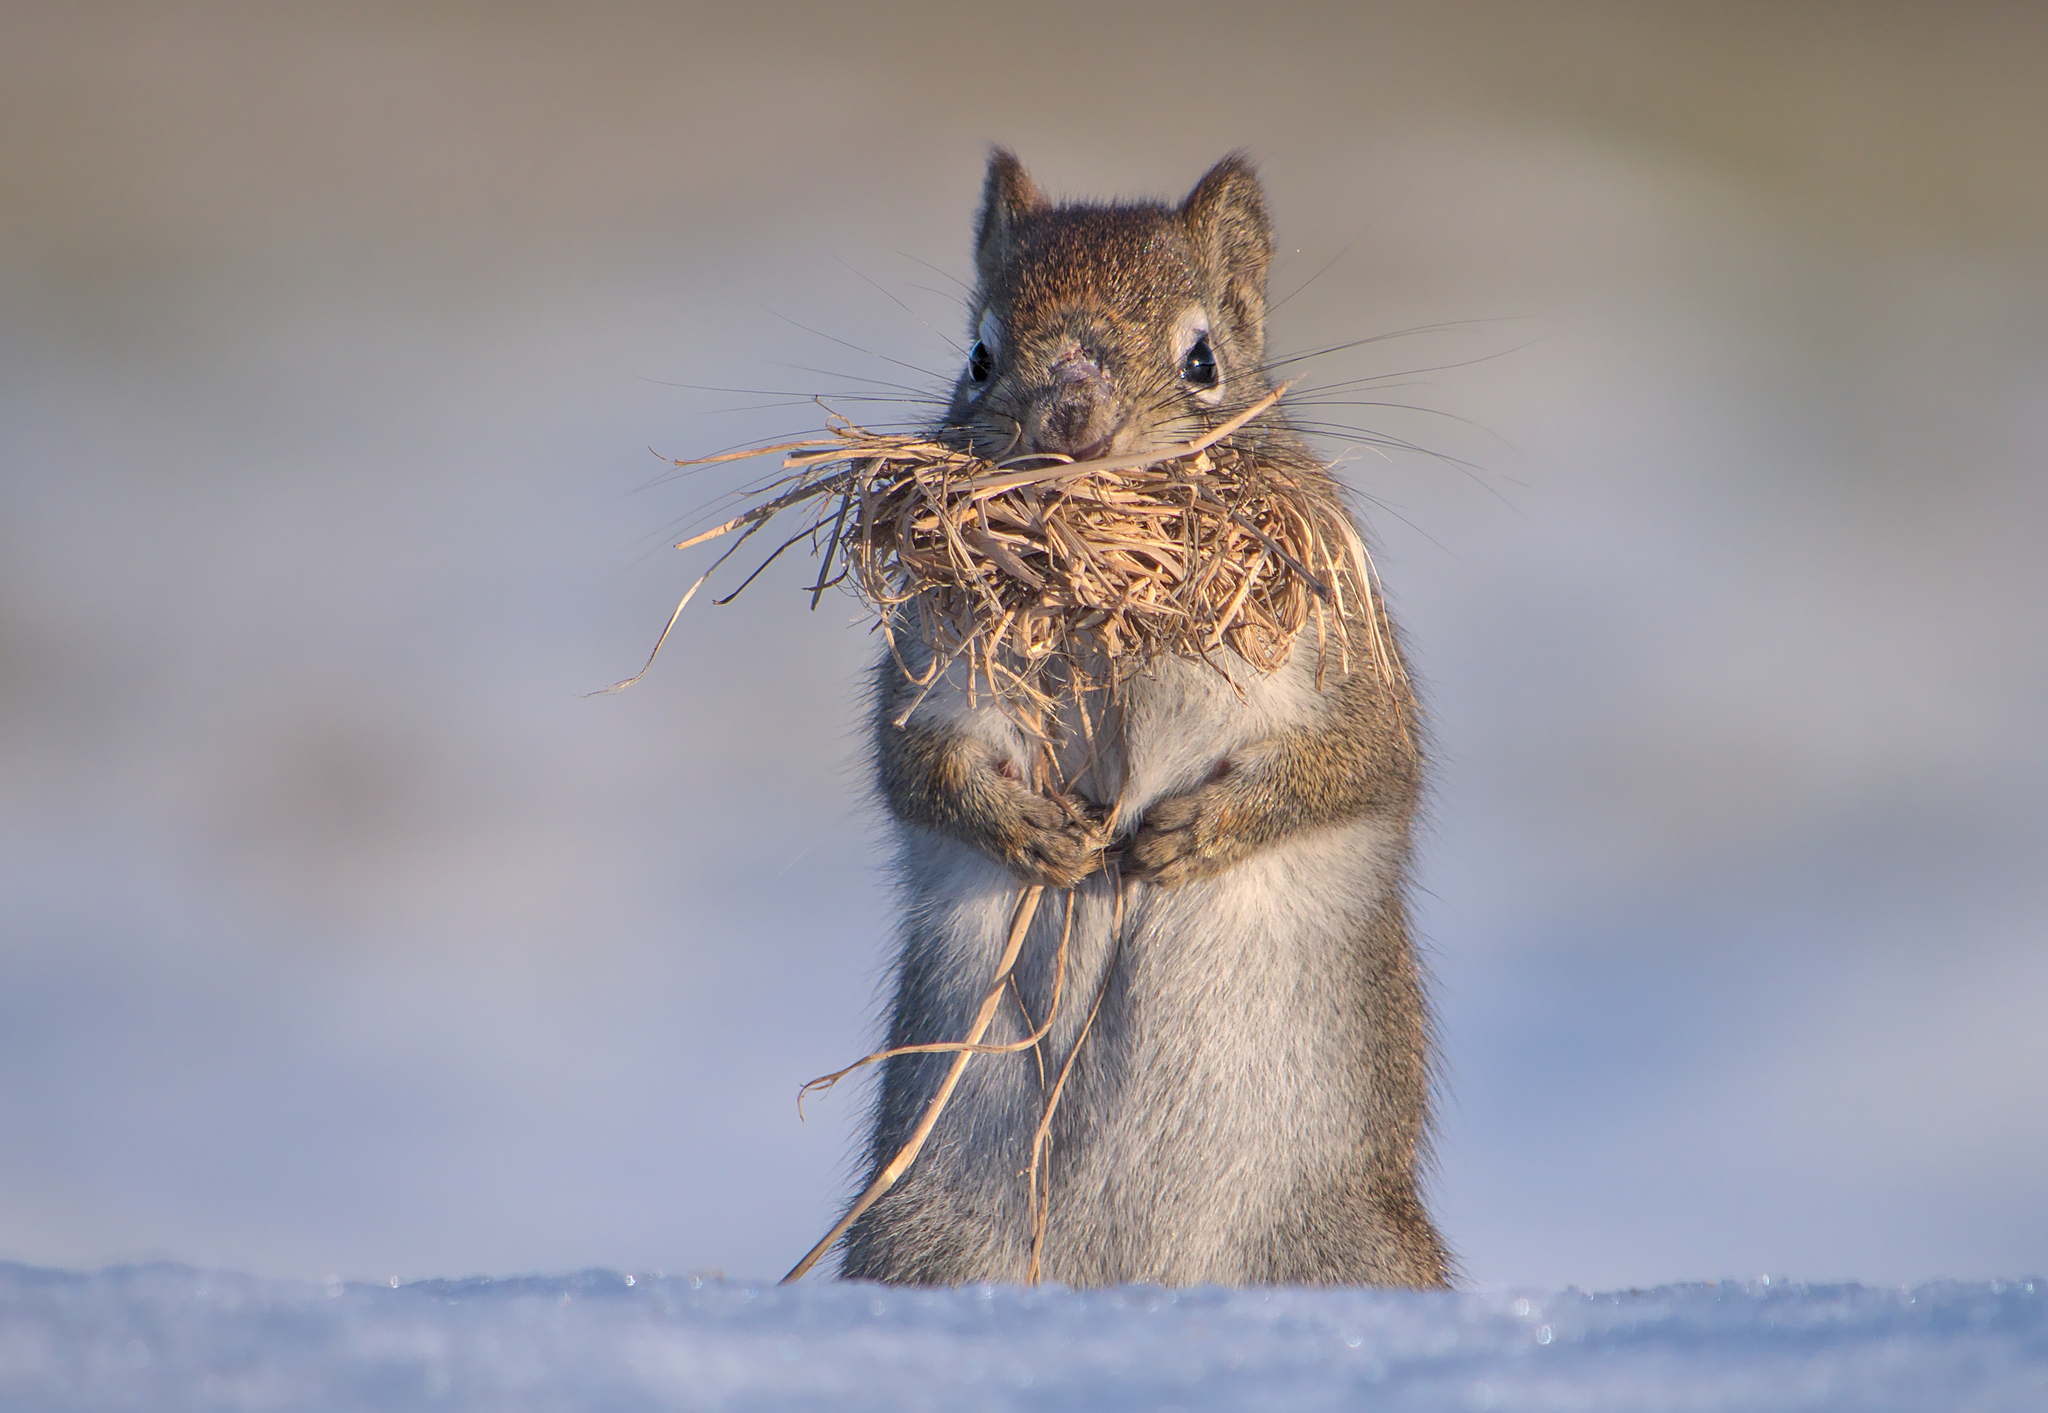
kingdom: Animalia
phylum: Chordata
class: Mammalia
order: Rodentia
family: Sciuridae
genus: Tamiasciurus
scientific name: Tamiasciurus hudsonicus
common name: Red squirrel
